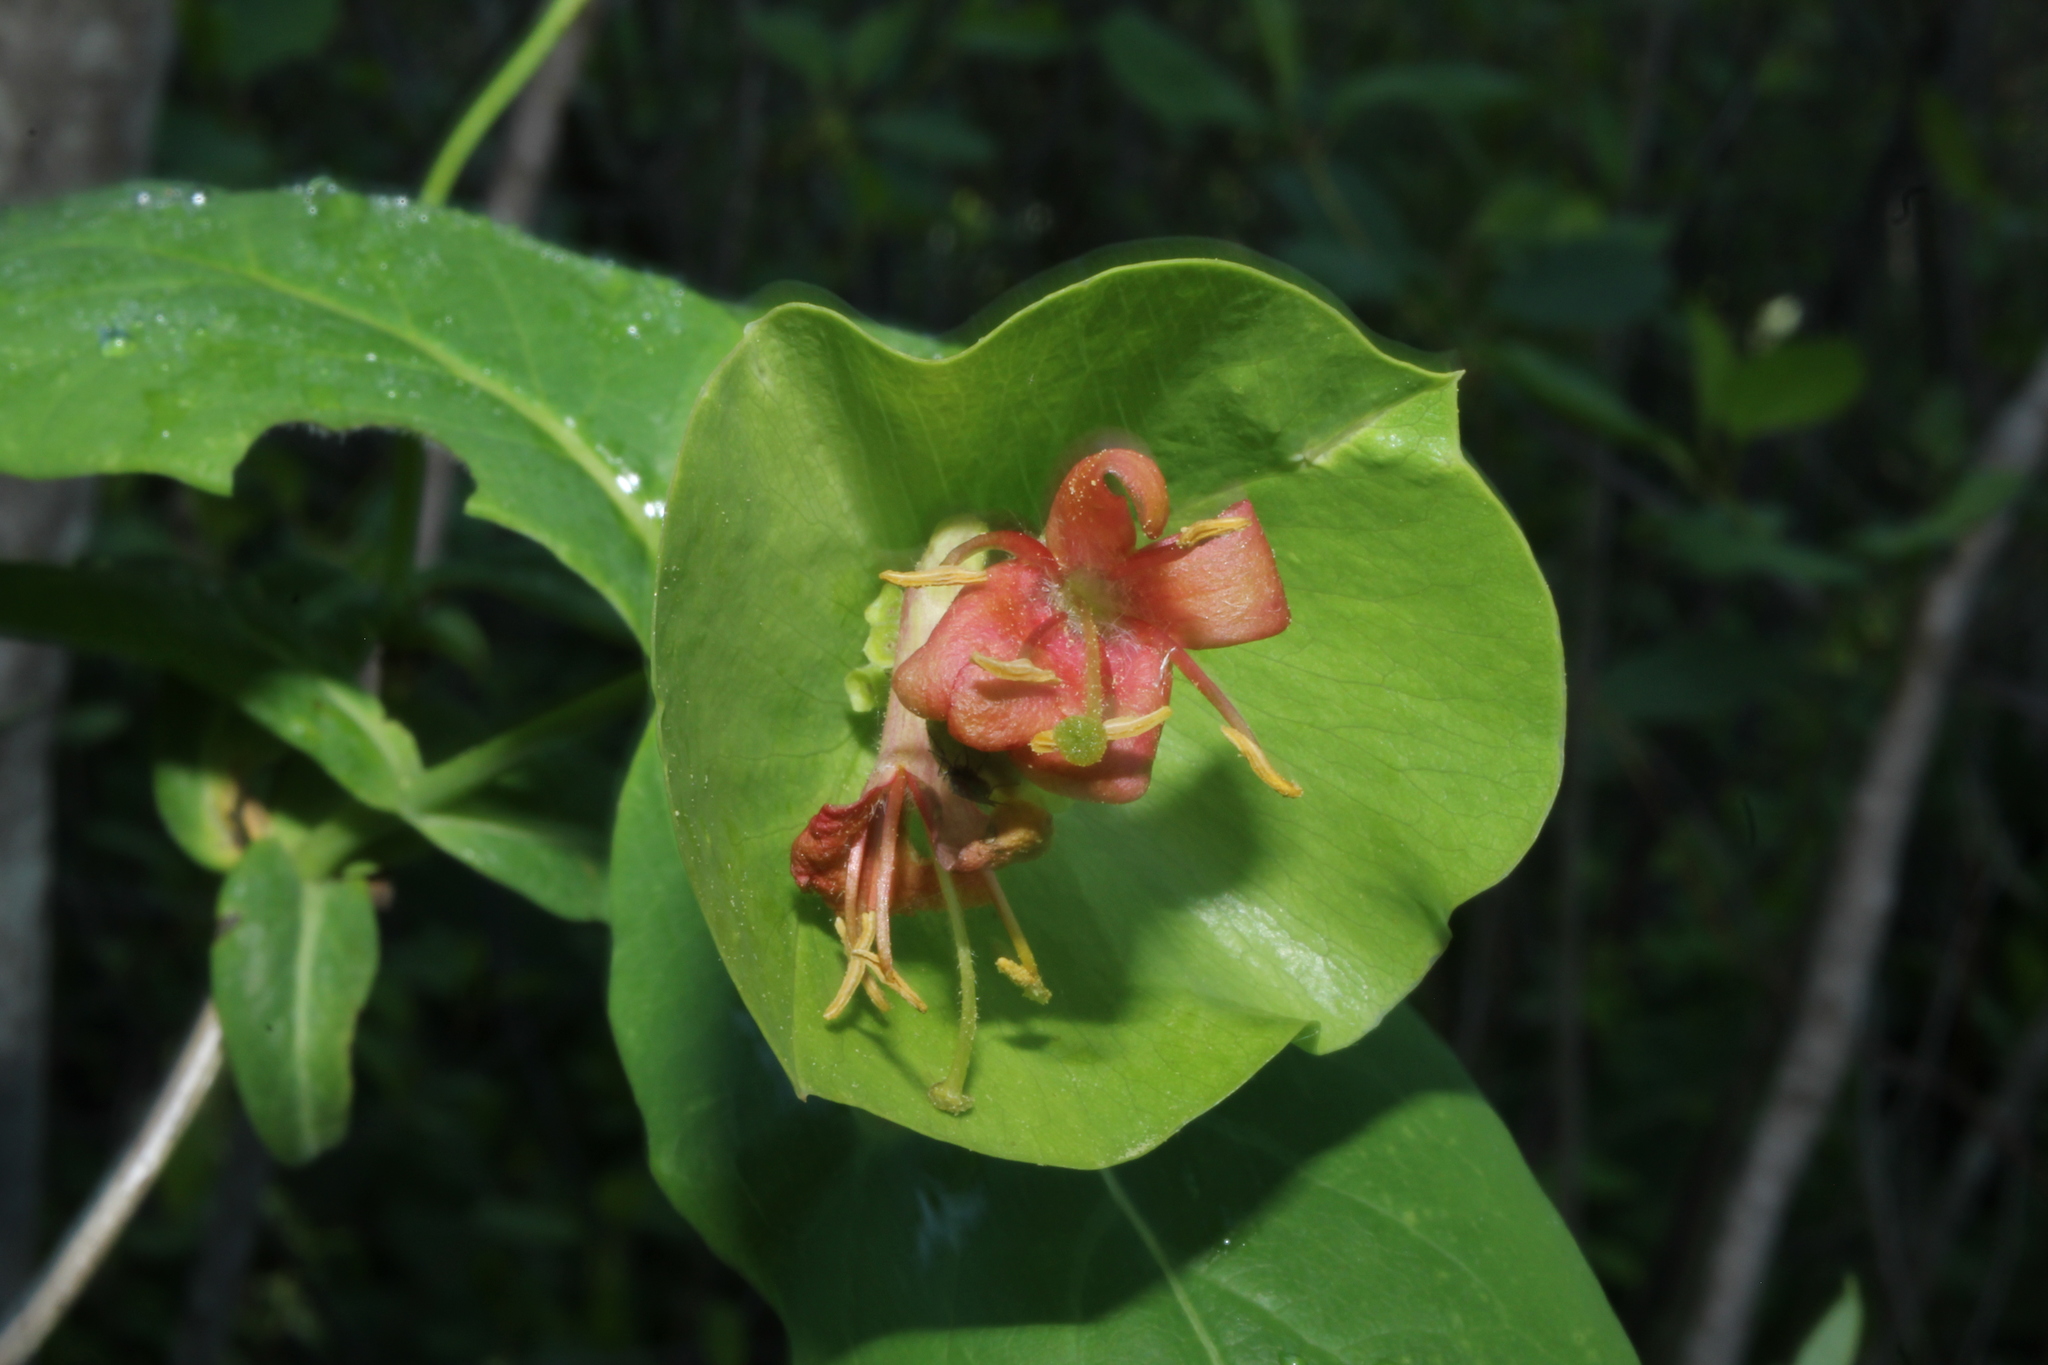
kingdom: Plantae
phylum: Tracheophyta
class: Magnoliopsida
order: Dipsacales
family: Caprifoliaceae
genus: Lonicera
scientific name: Lonicera dioica
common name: Limber honeysuckle
